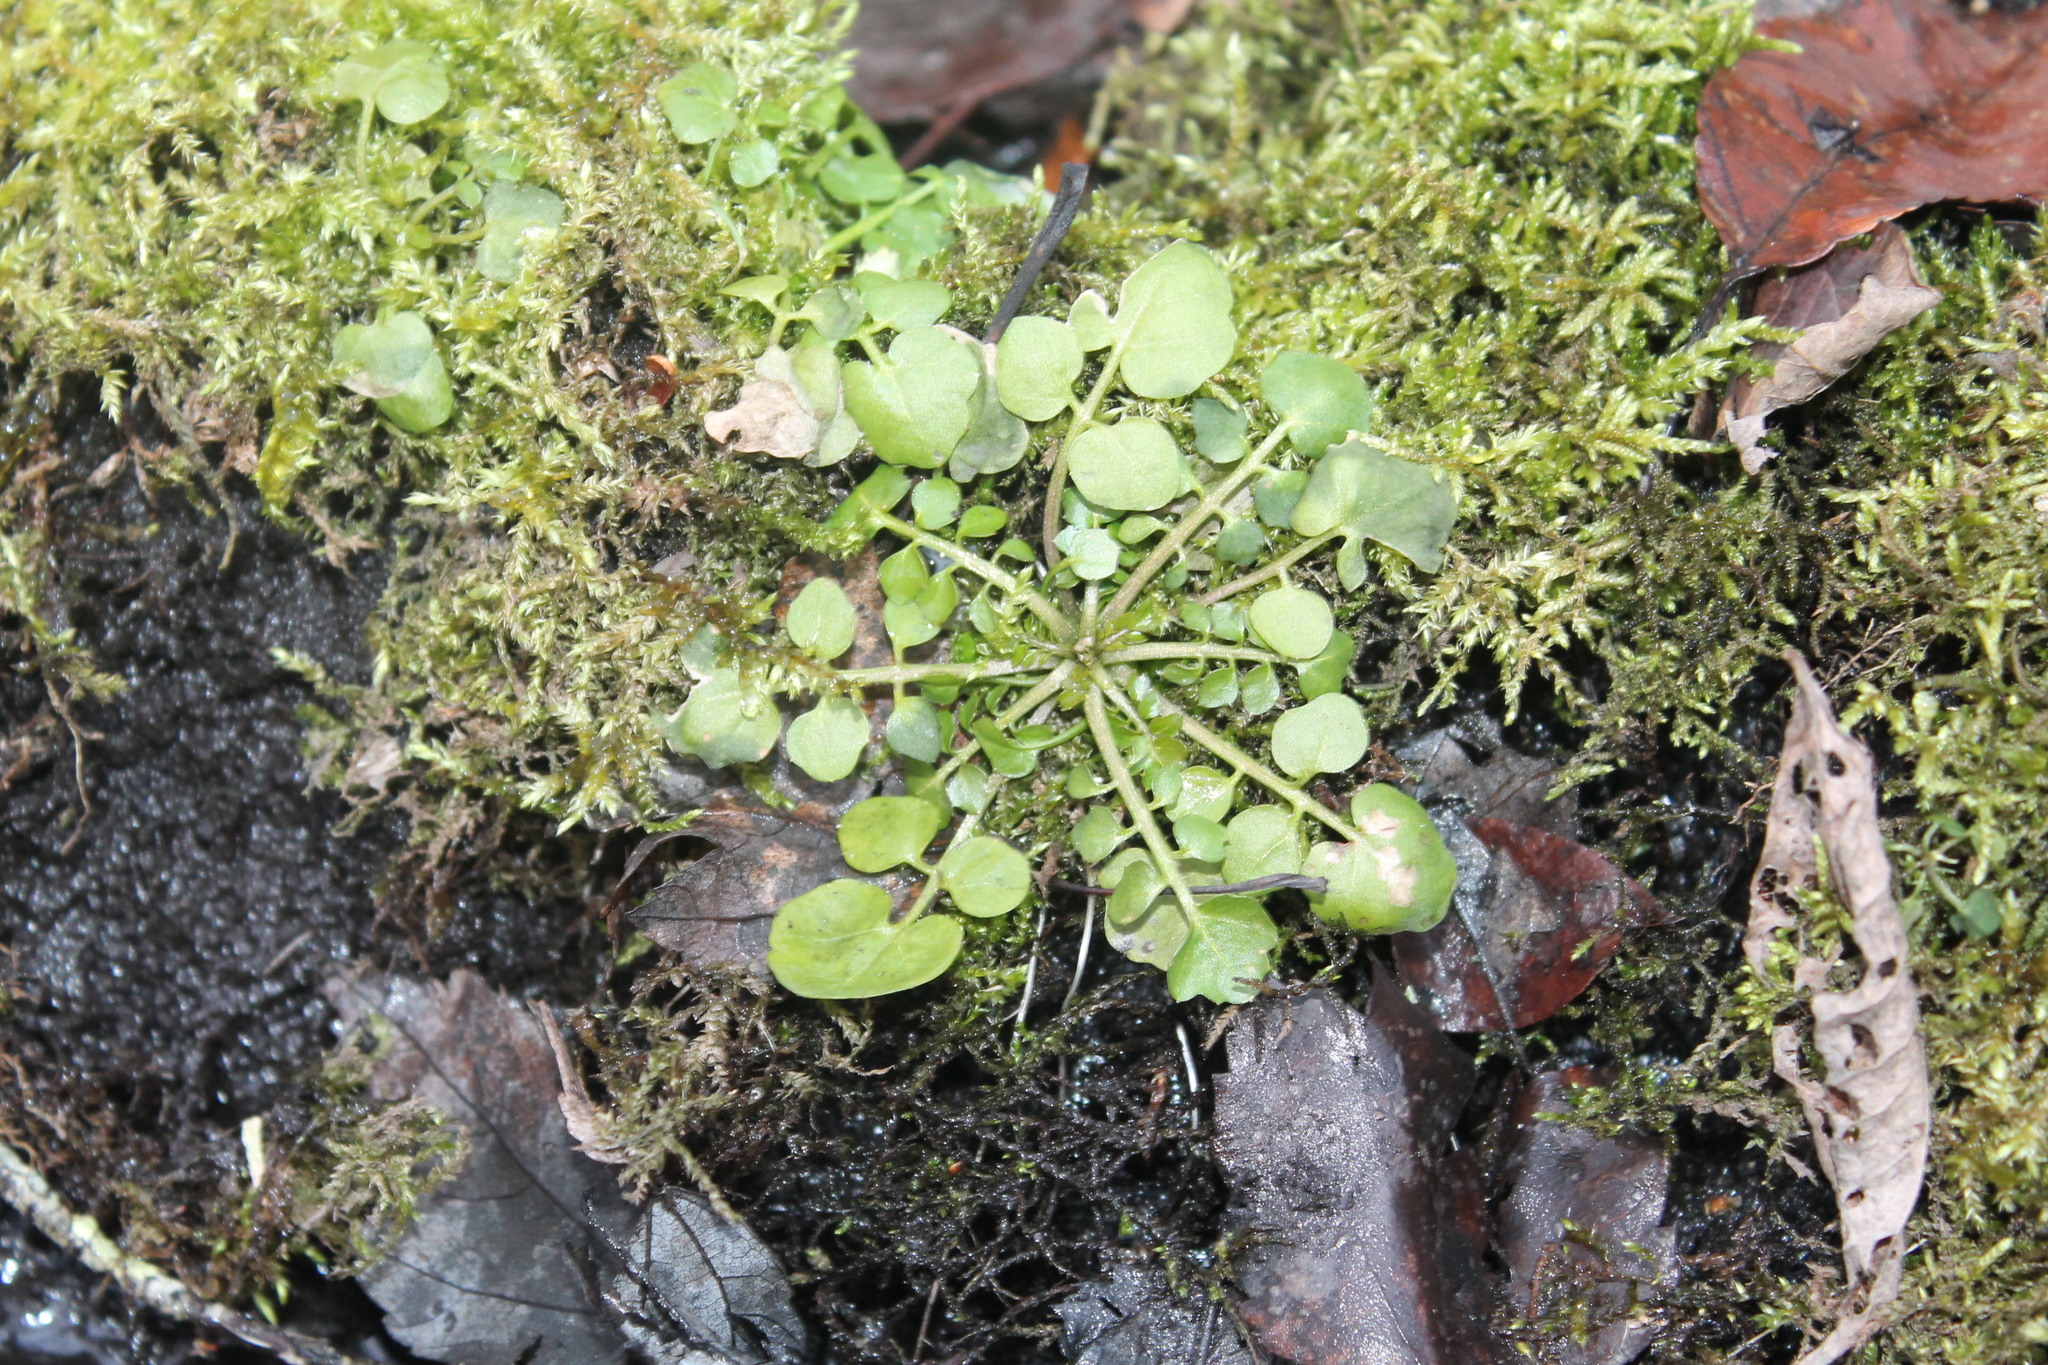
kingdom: Plantae
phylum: Tracheophyta
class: Magnoliopsida
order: Brassicales
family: Brassicaceae
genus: Cardamine
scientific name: Cardamine hirsuta
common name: Hairy bittercress
